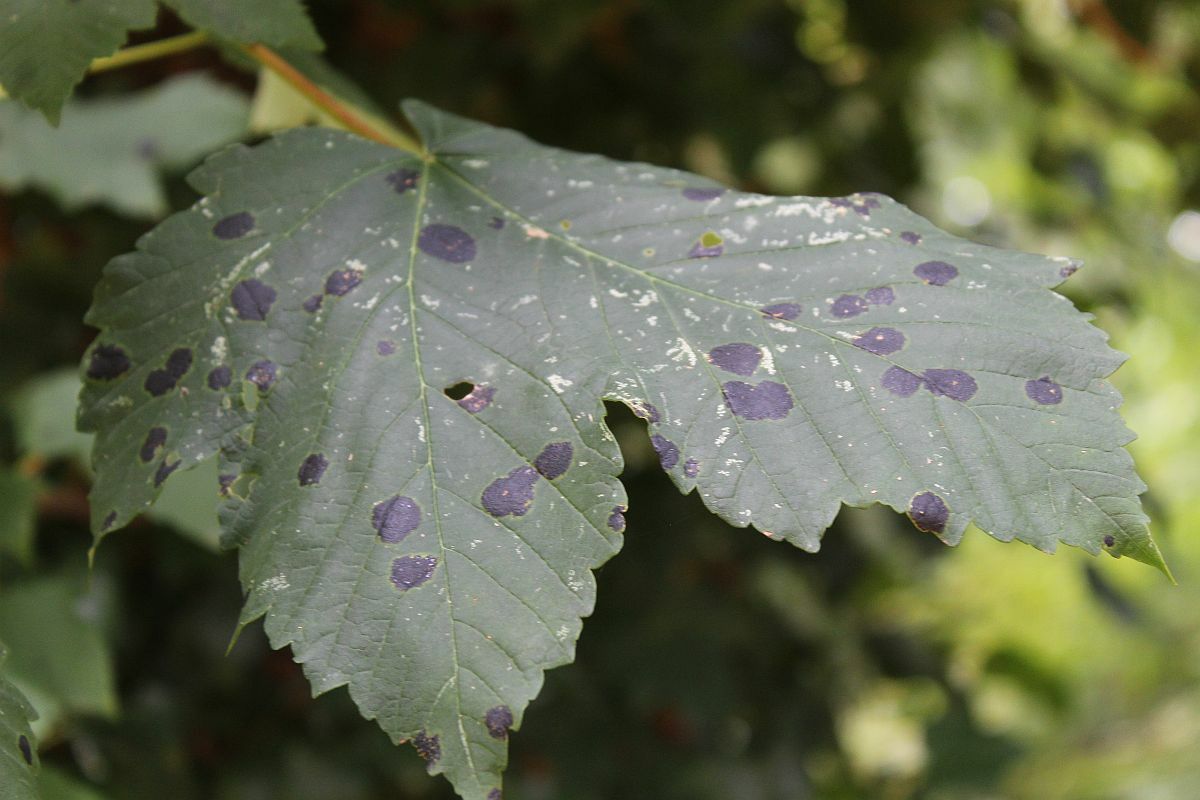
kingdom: Fungi
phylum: Ascomycota
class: Leotiomycetes
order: Rhytismatales
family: Rhytismataceae
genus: Rhytisma
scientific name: Rhytisma acerinum
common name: European tar spot
